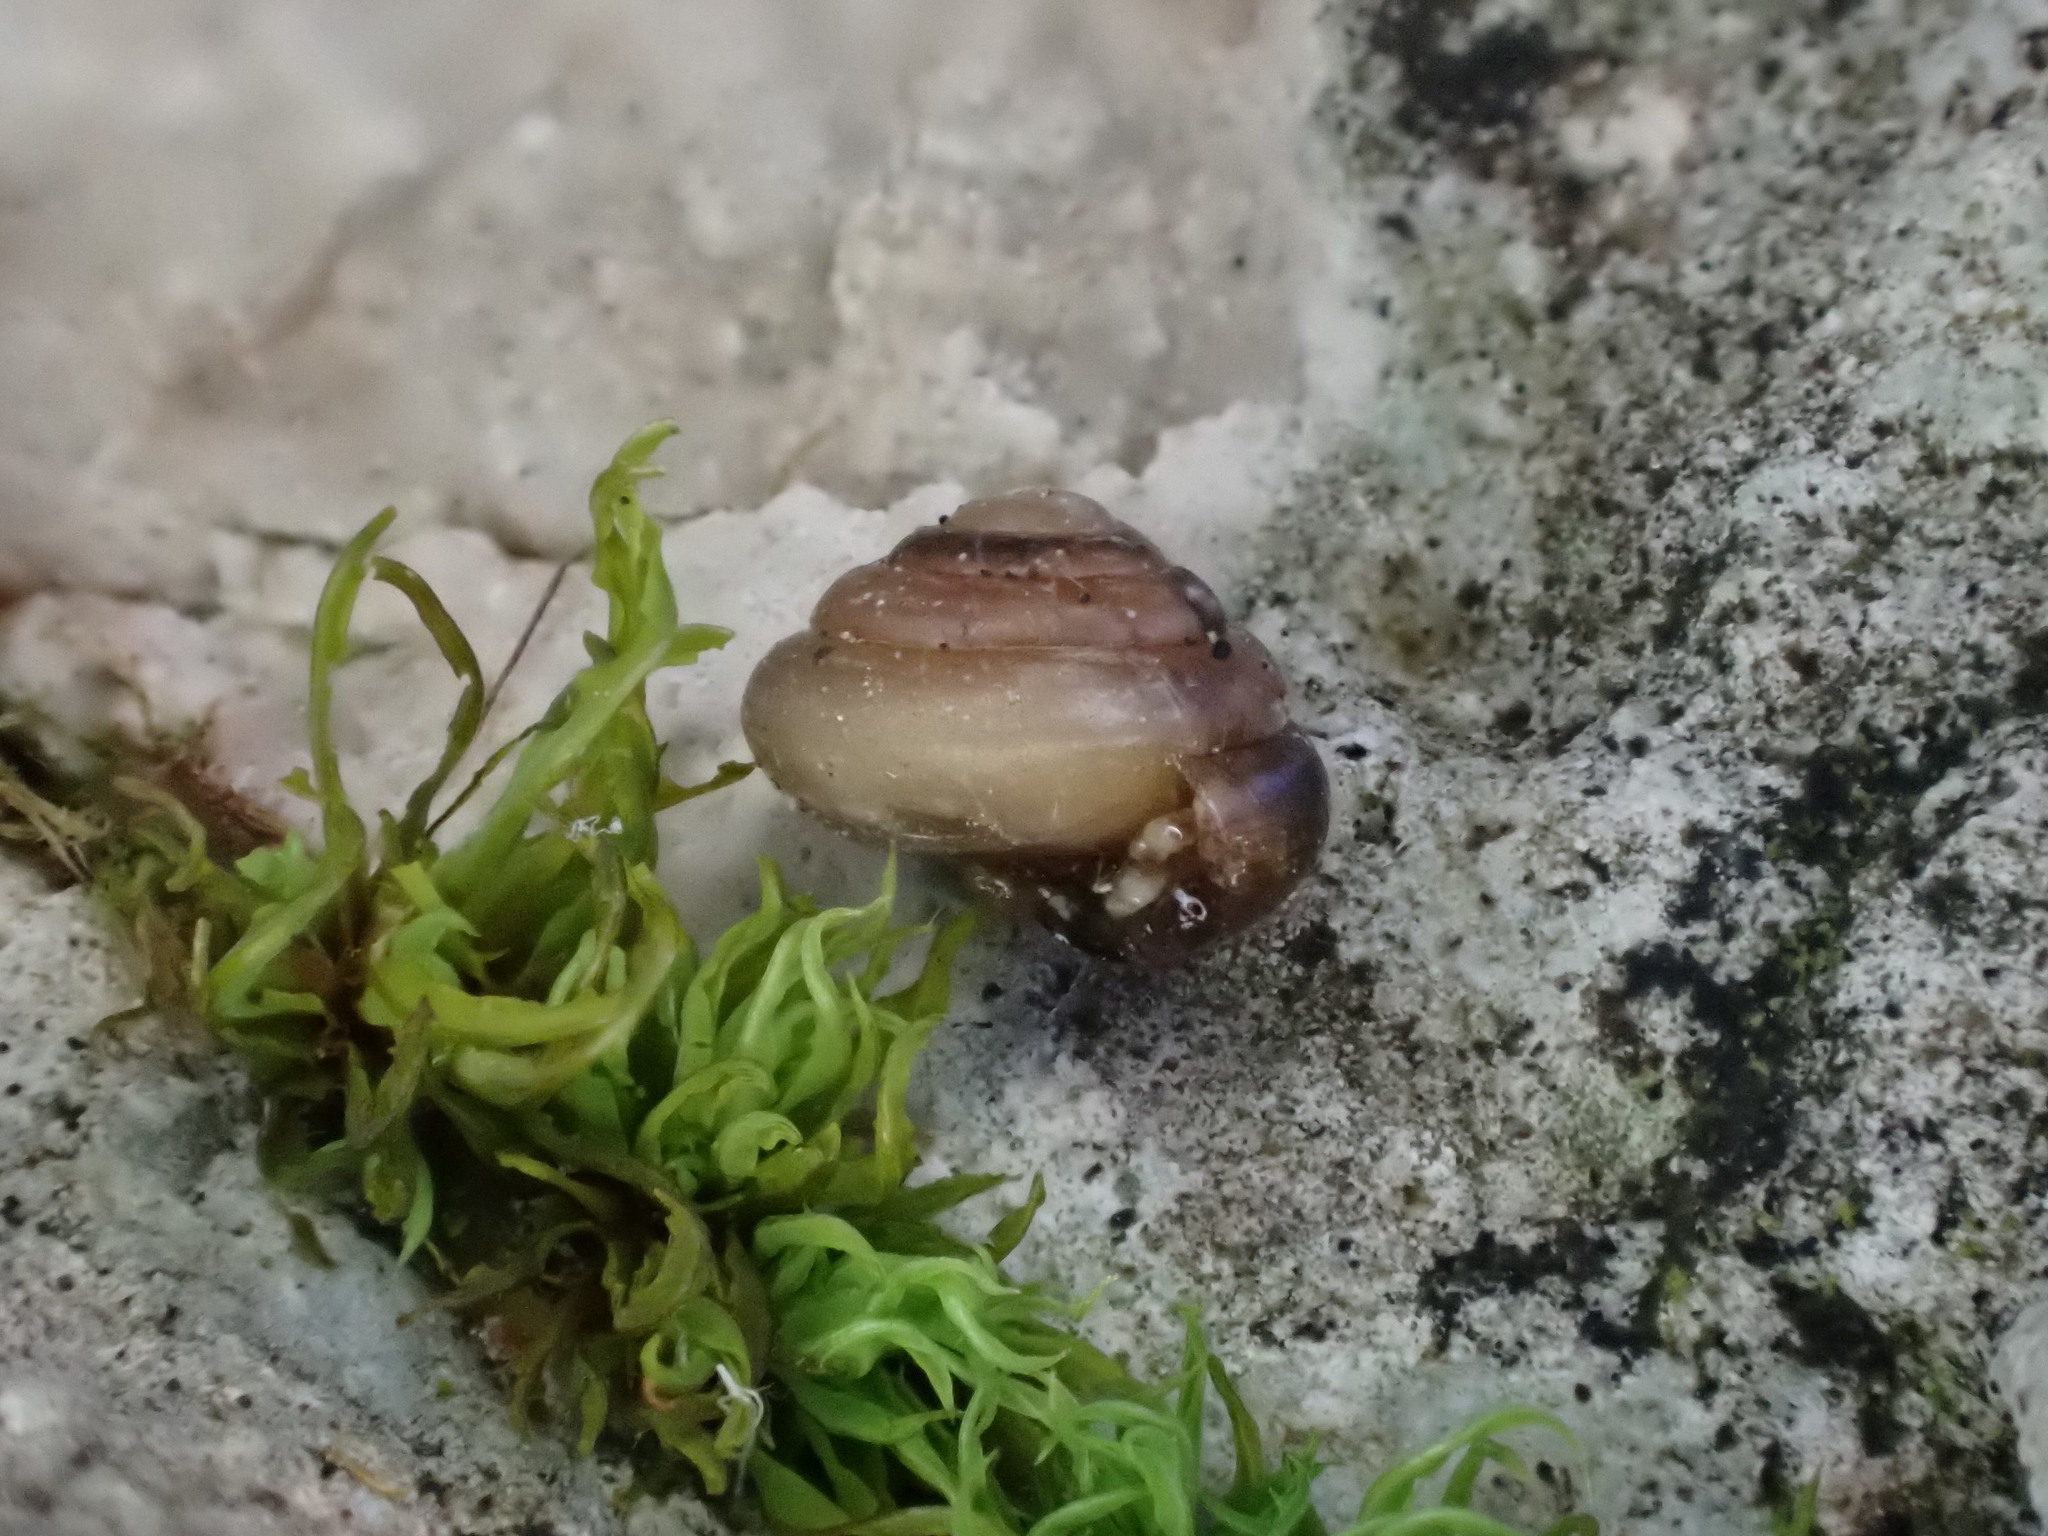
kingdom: Animalia
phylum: Mollusca
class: Gastropoda
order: Stylommatophora
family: Euconulidae
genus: Euconulus
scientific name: Euconulus fulvus
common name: Tawny glass snail
